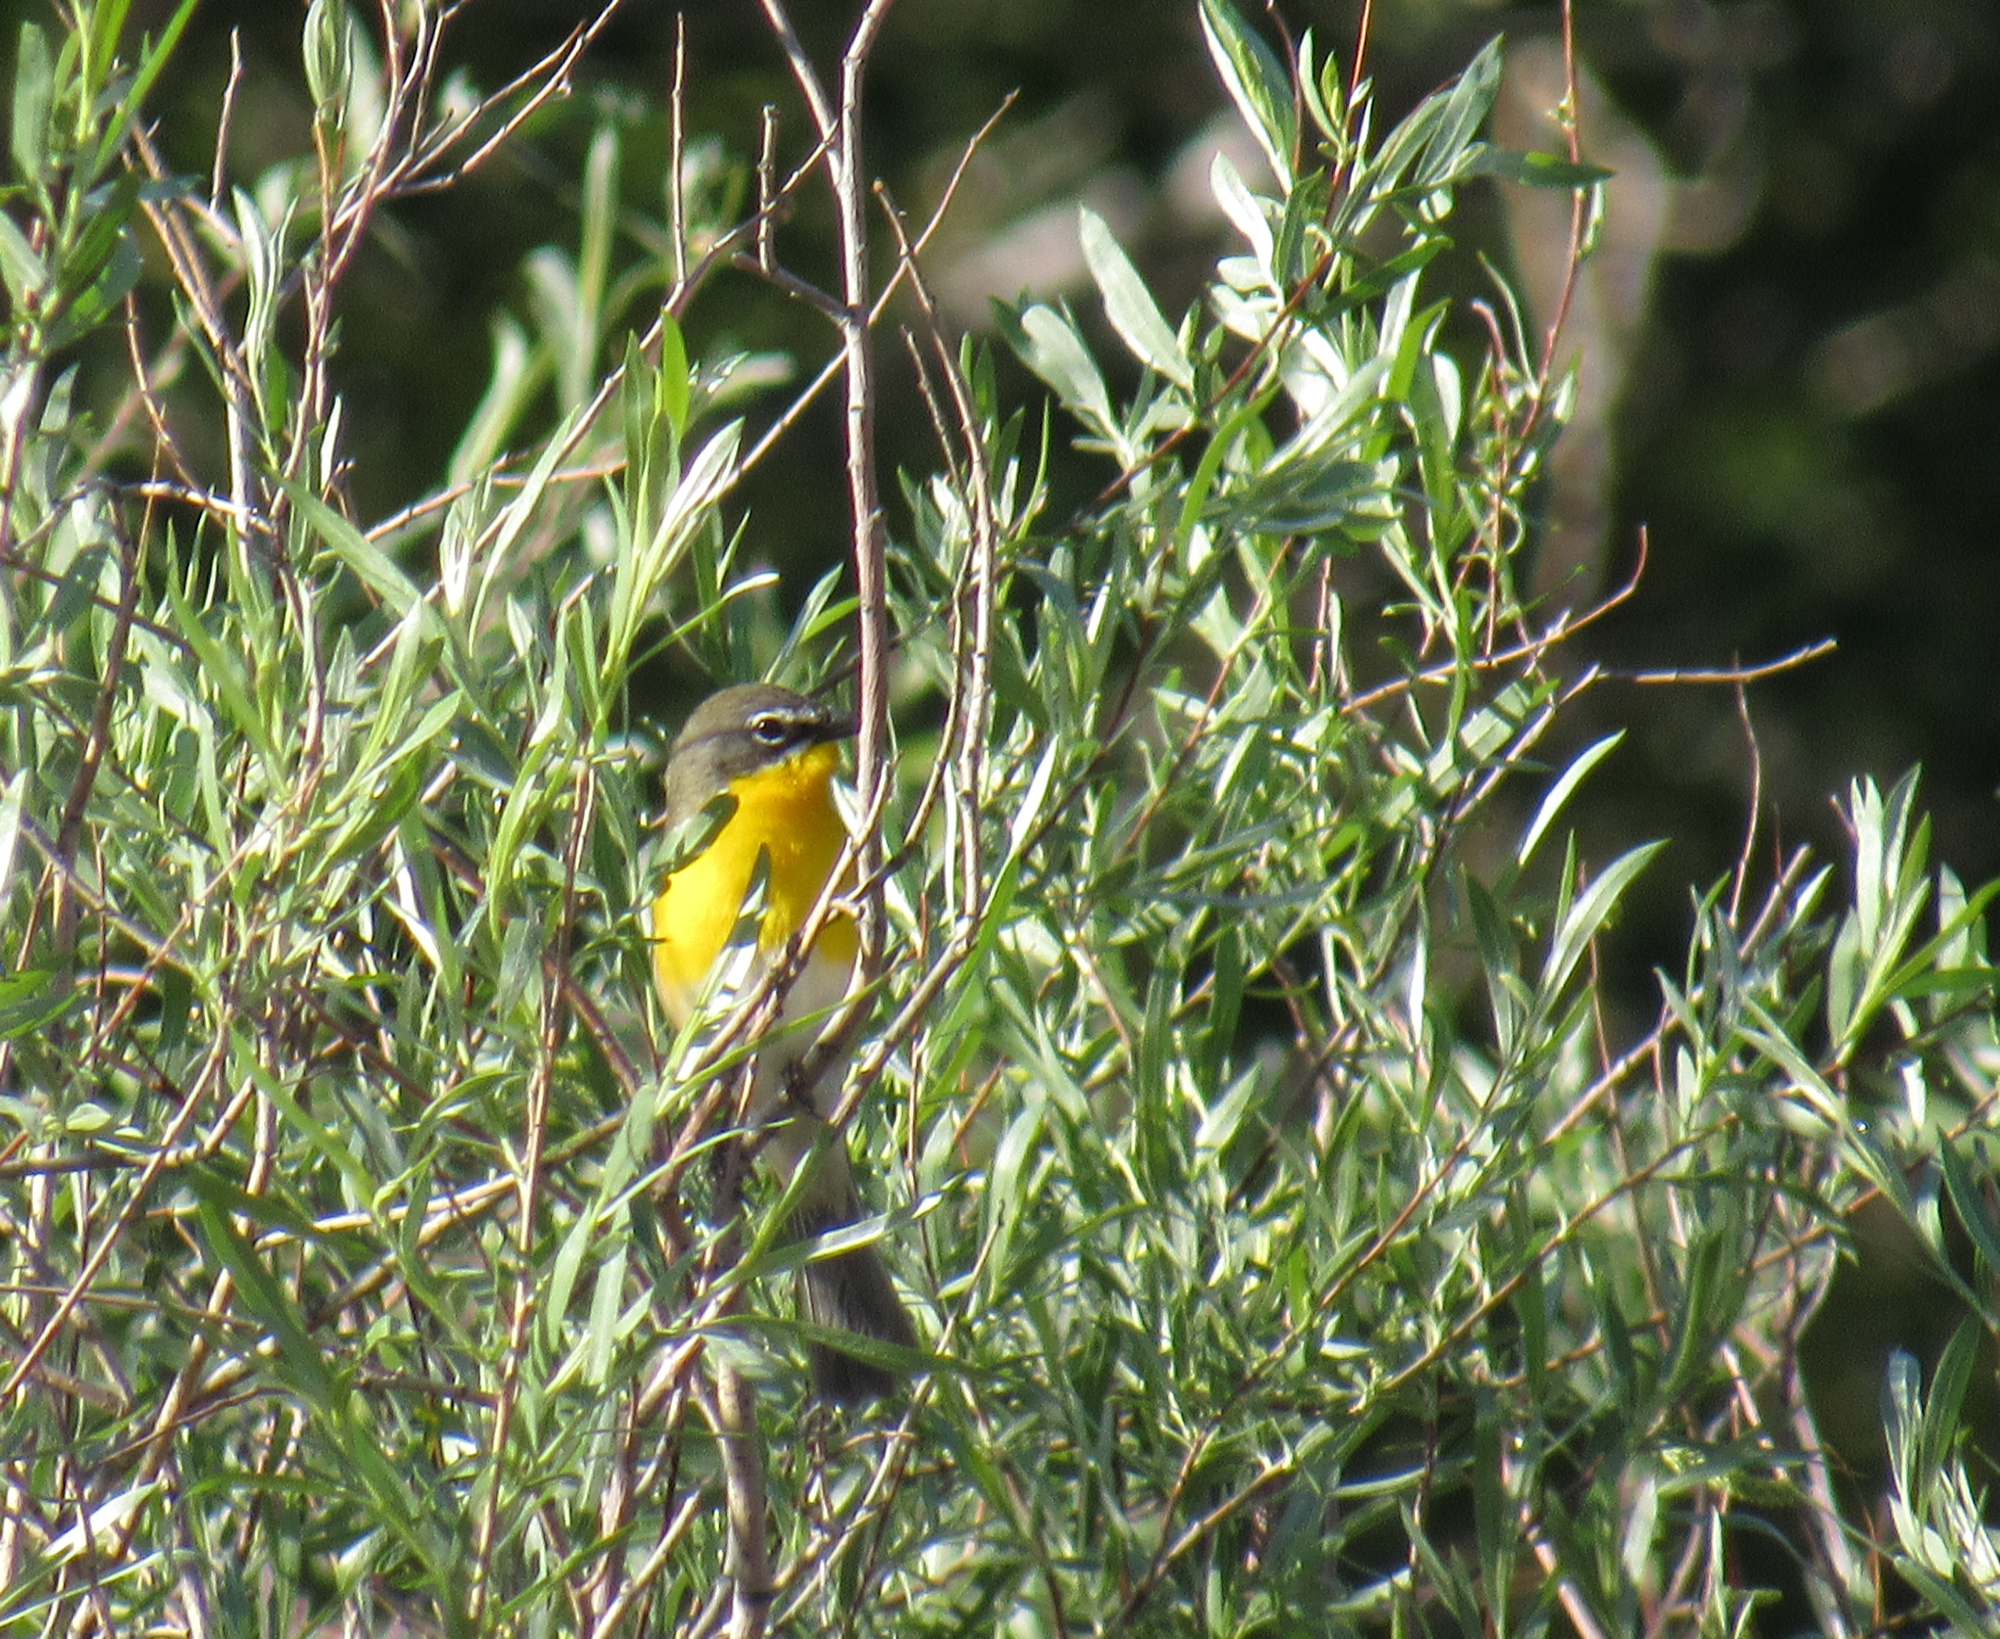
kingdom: Animalia
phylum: Chordata
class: Aves
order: Passeriformes
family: Parulidae
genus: Icteria
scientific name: Icteria virens
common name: Yellow-breasted chat
